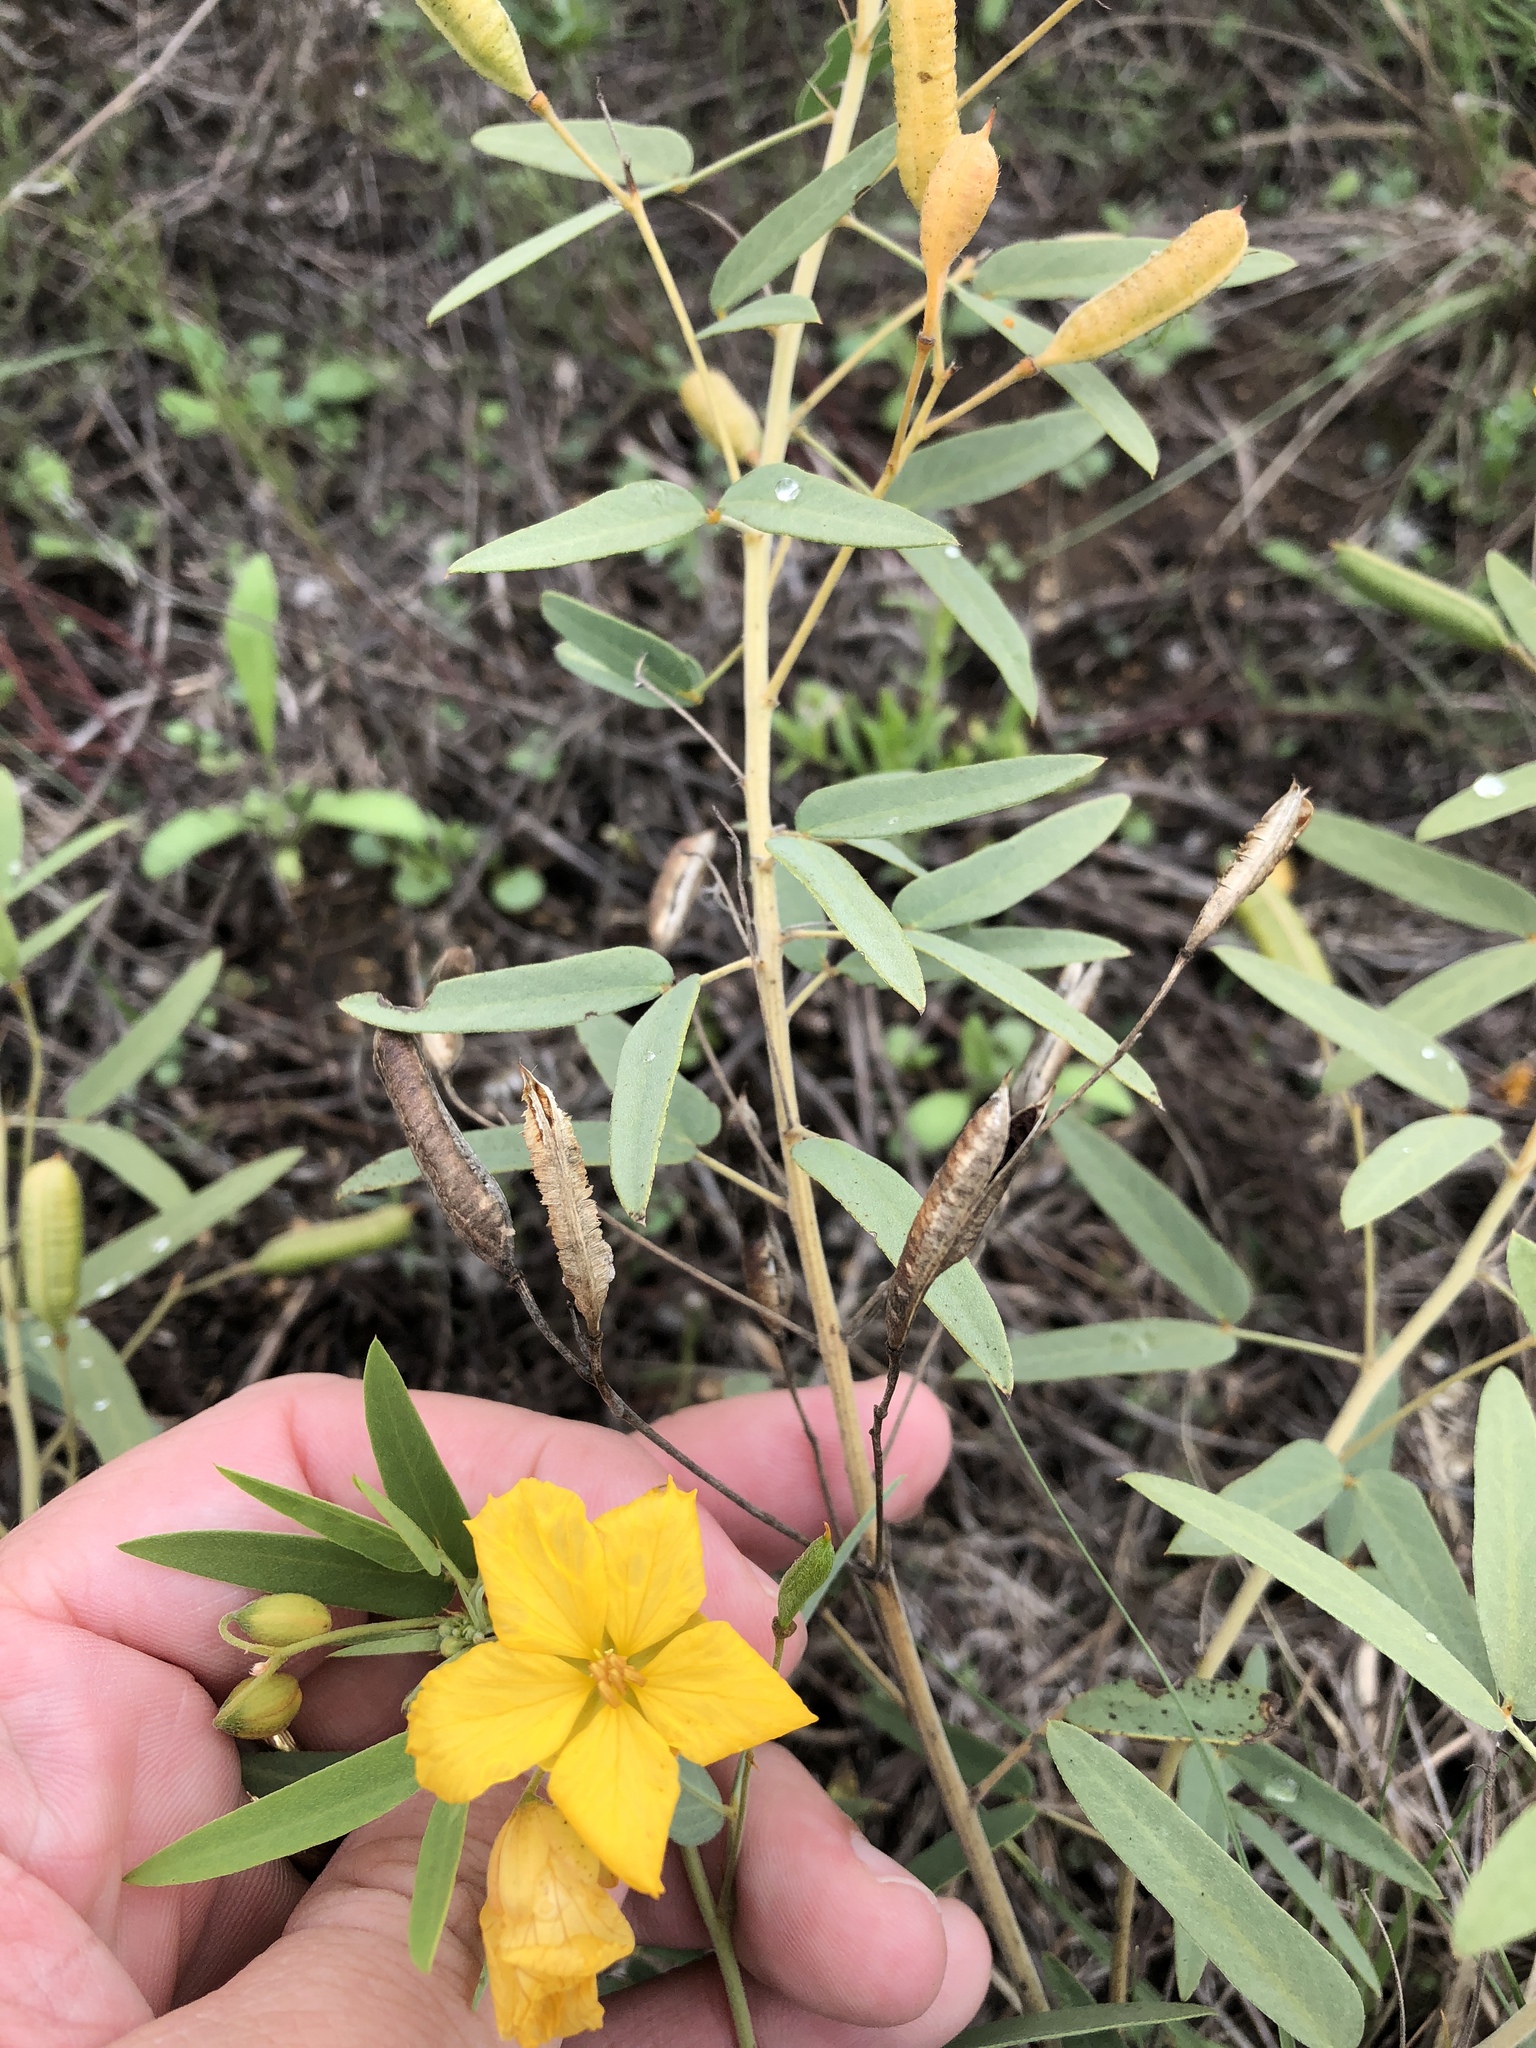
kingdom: Plantae
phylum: Tracheophyta
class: Magnoliopsida
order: Fabales
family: Fabaceae
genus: Senna
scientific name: Senna roemeriana
